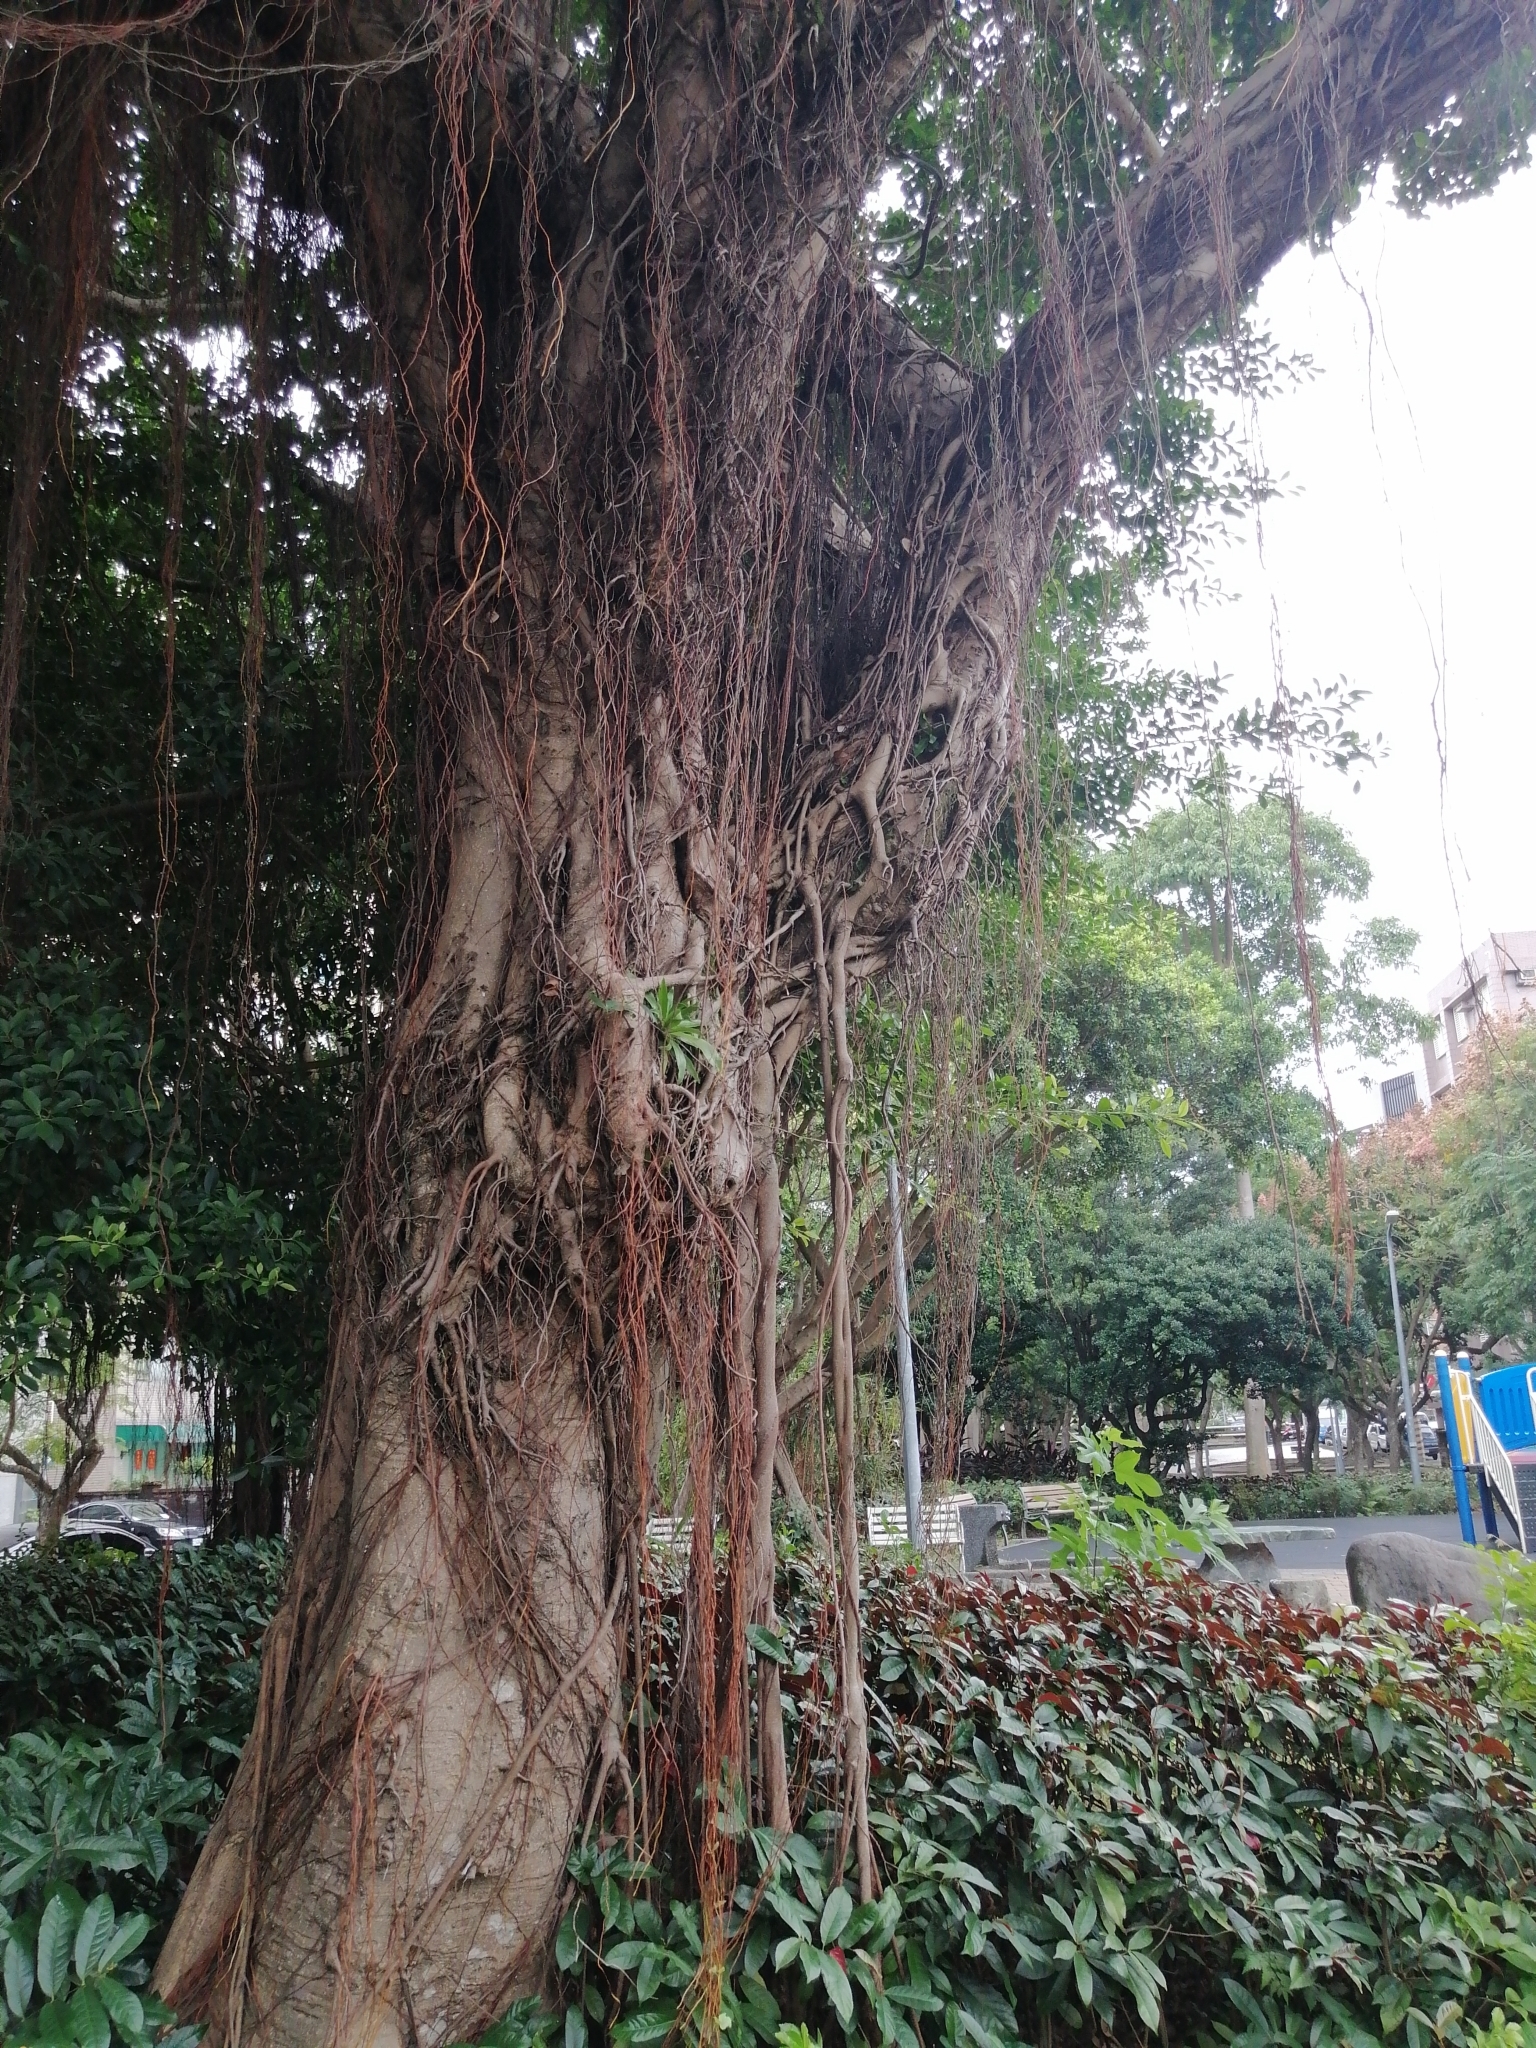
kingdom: Plantae
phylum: Tracheophyta
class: Magnoliopsida
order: Rosales
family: Moraceae
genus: Ficus
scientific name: Ficus microcarpa
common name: Chinese banyan
